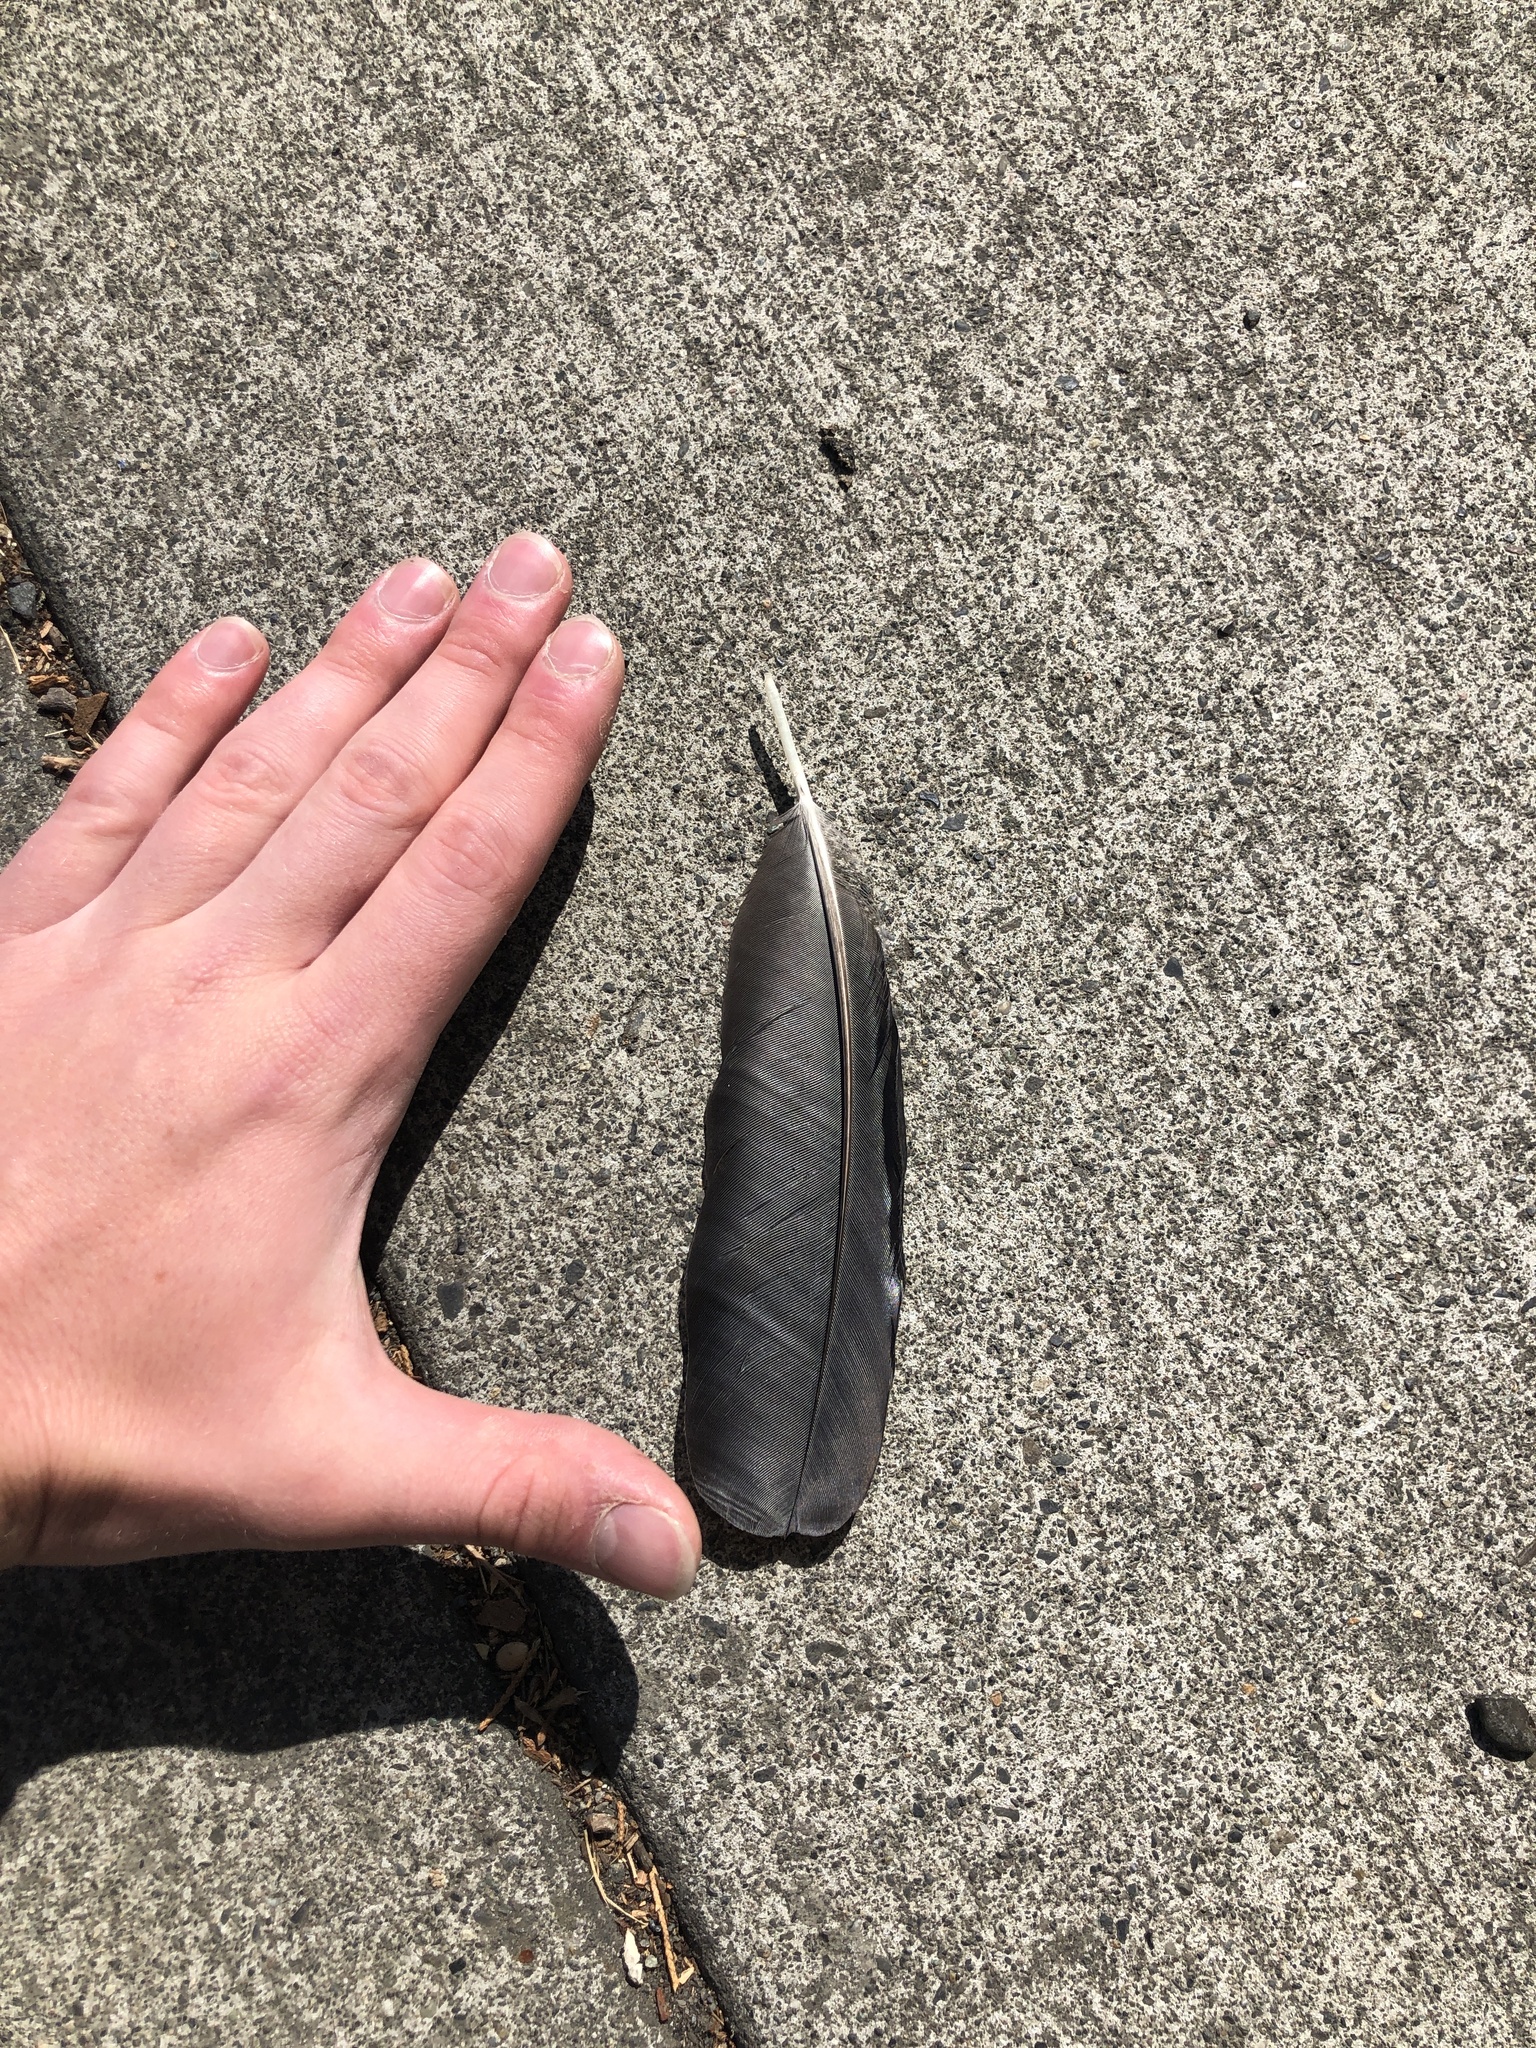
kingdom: Animalia
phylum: Chordata
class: Aves
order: Passeriformes
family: Corvidae
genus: Corvus
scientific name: Corvus brachyrhynchos
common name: American crow
